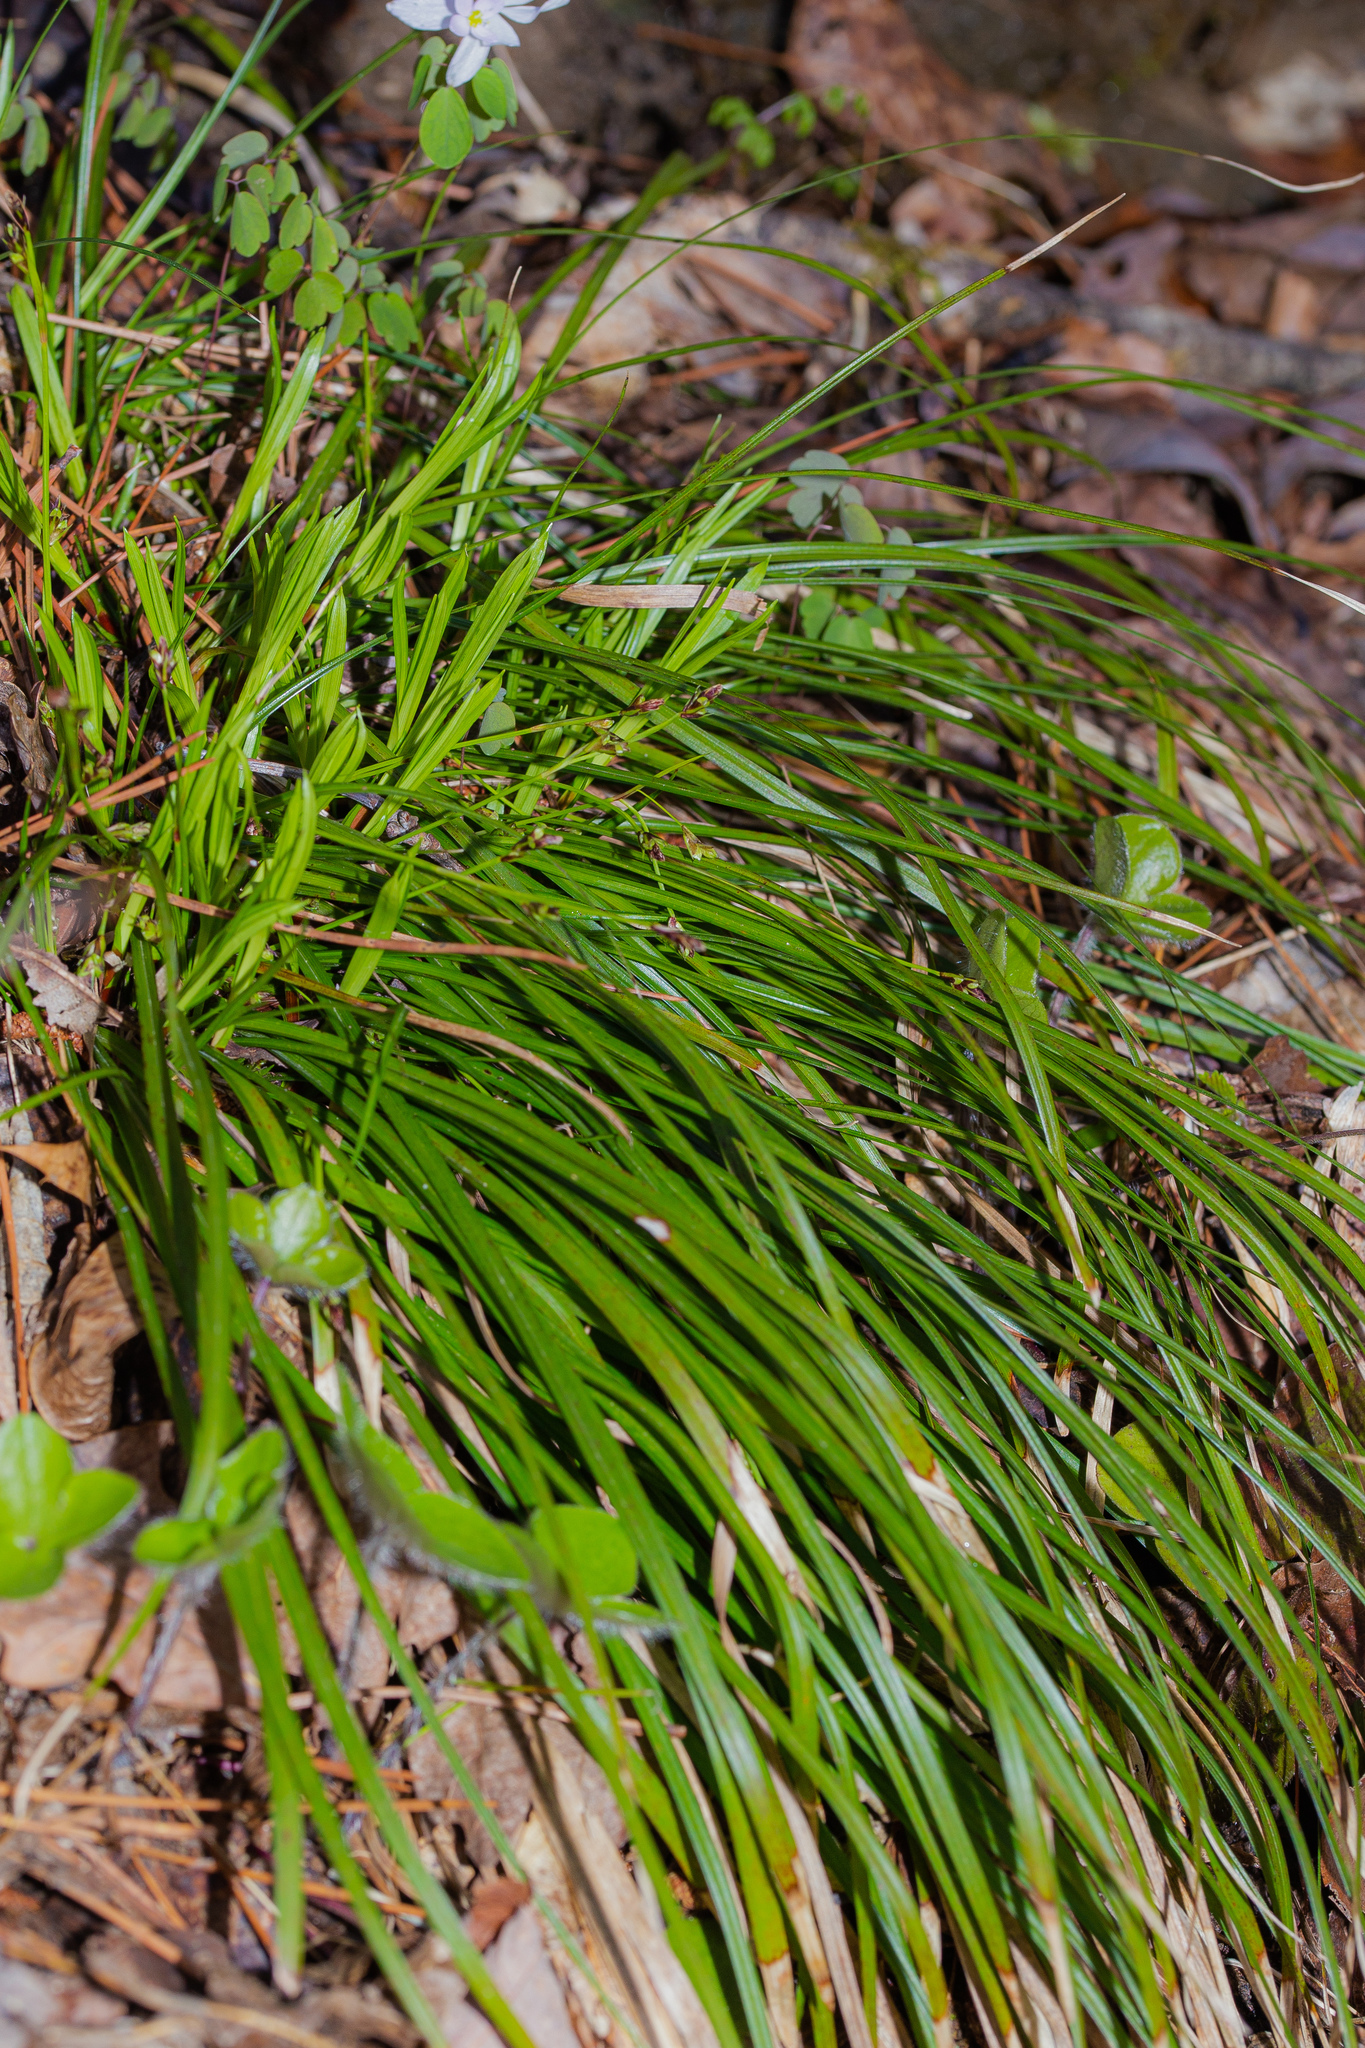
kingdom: Plantae
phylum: Tracheophyta
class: Liliopsida
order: Poales
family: Cyperaceae
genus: Carex
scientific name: Carex pedunculata
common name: Pedunculate sedge
